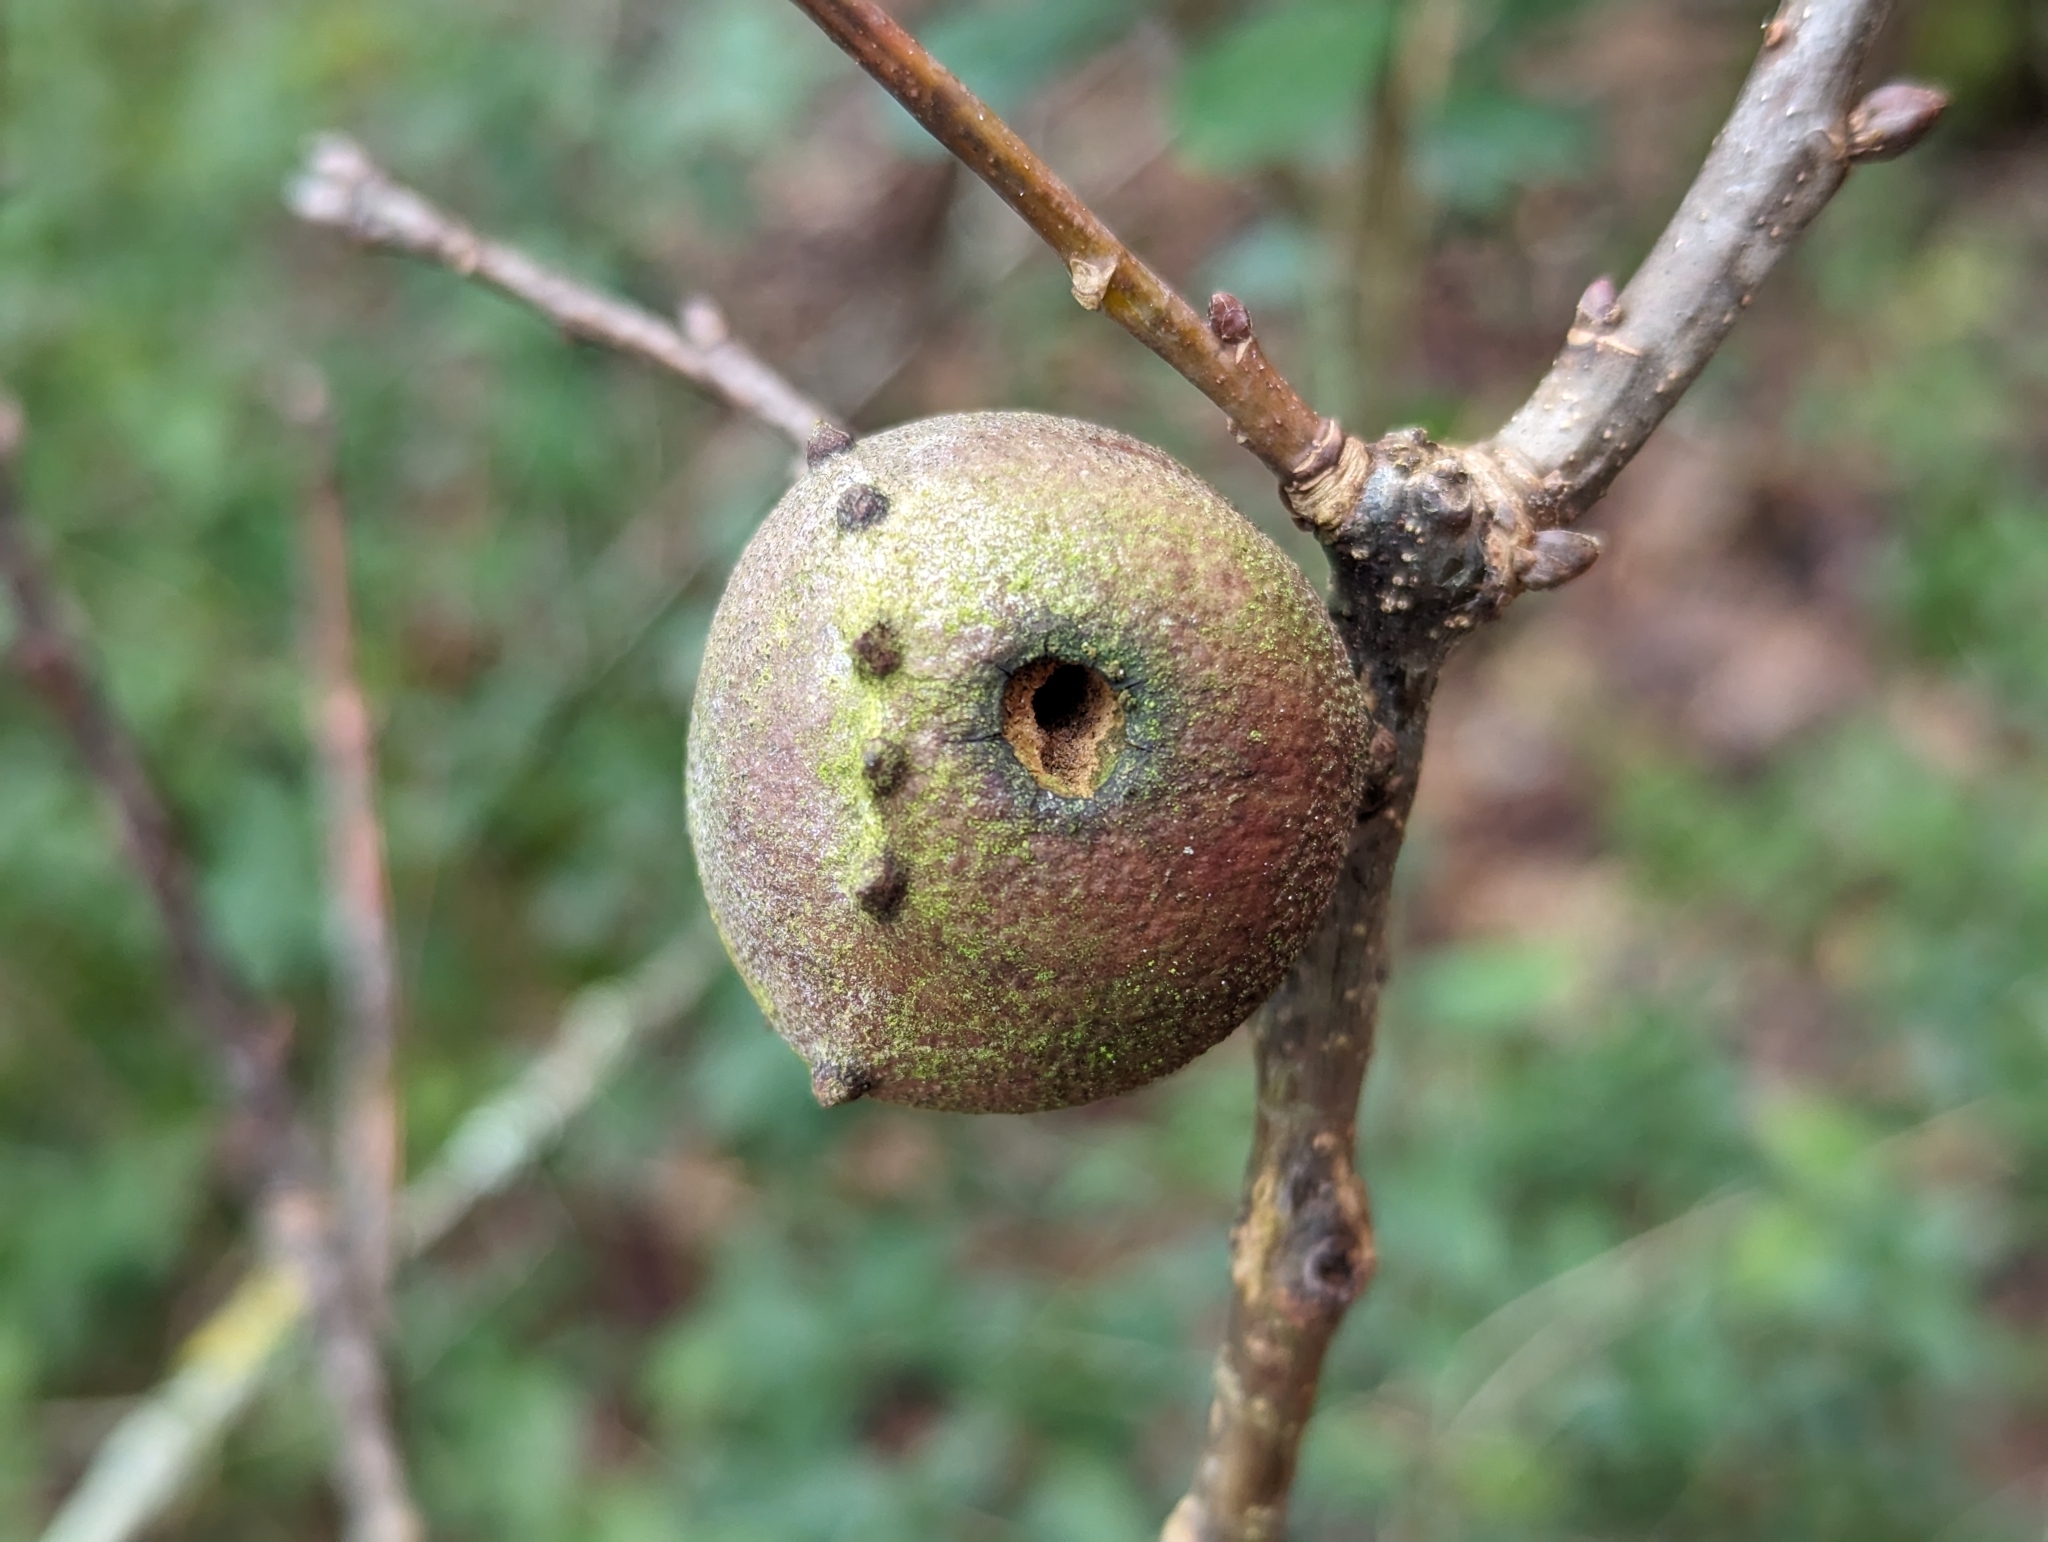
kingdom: Animalia
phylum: Arthropoda
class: Insecta
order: Hymenoptera
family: Cynipidae
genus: Andricus
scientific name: Andricus quercustozae
